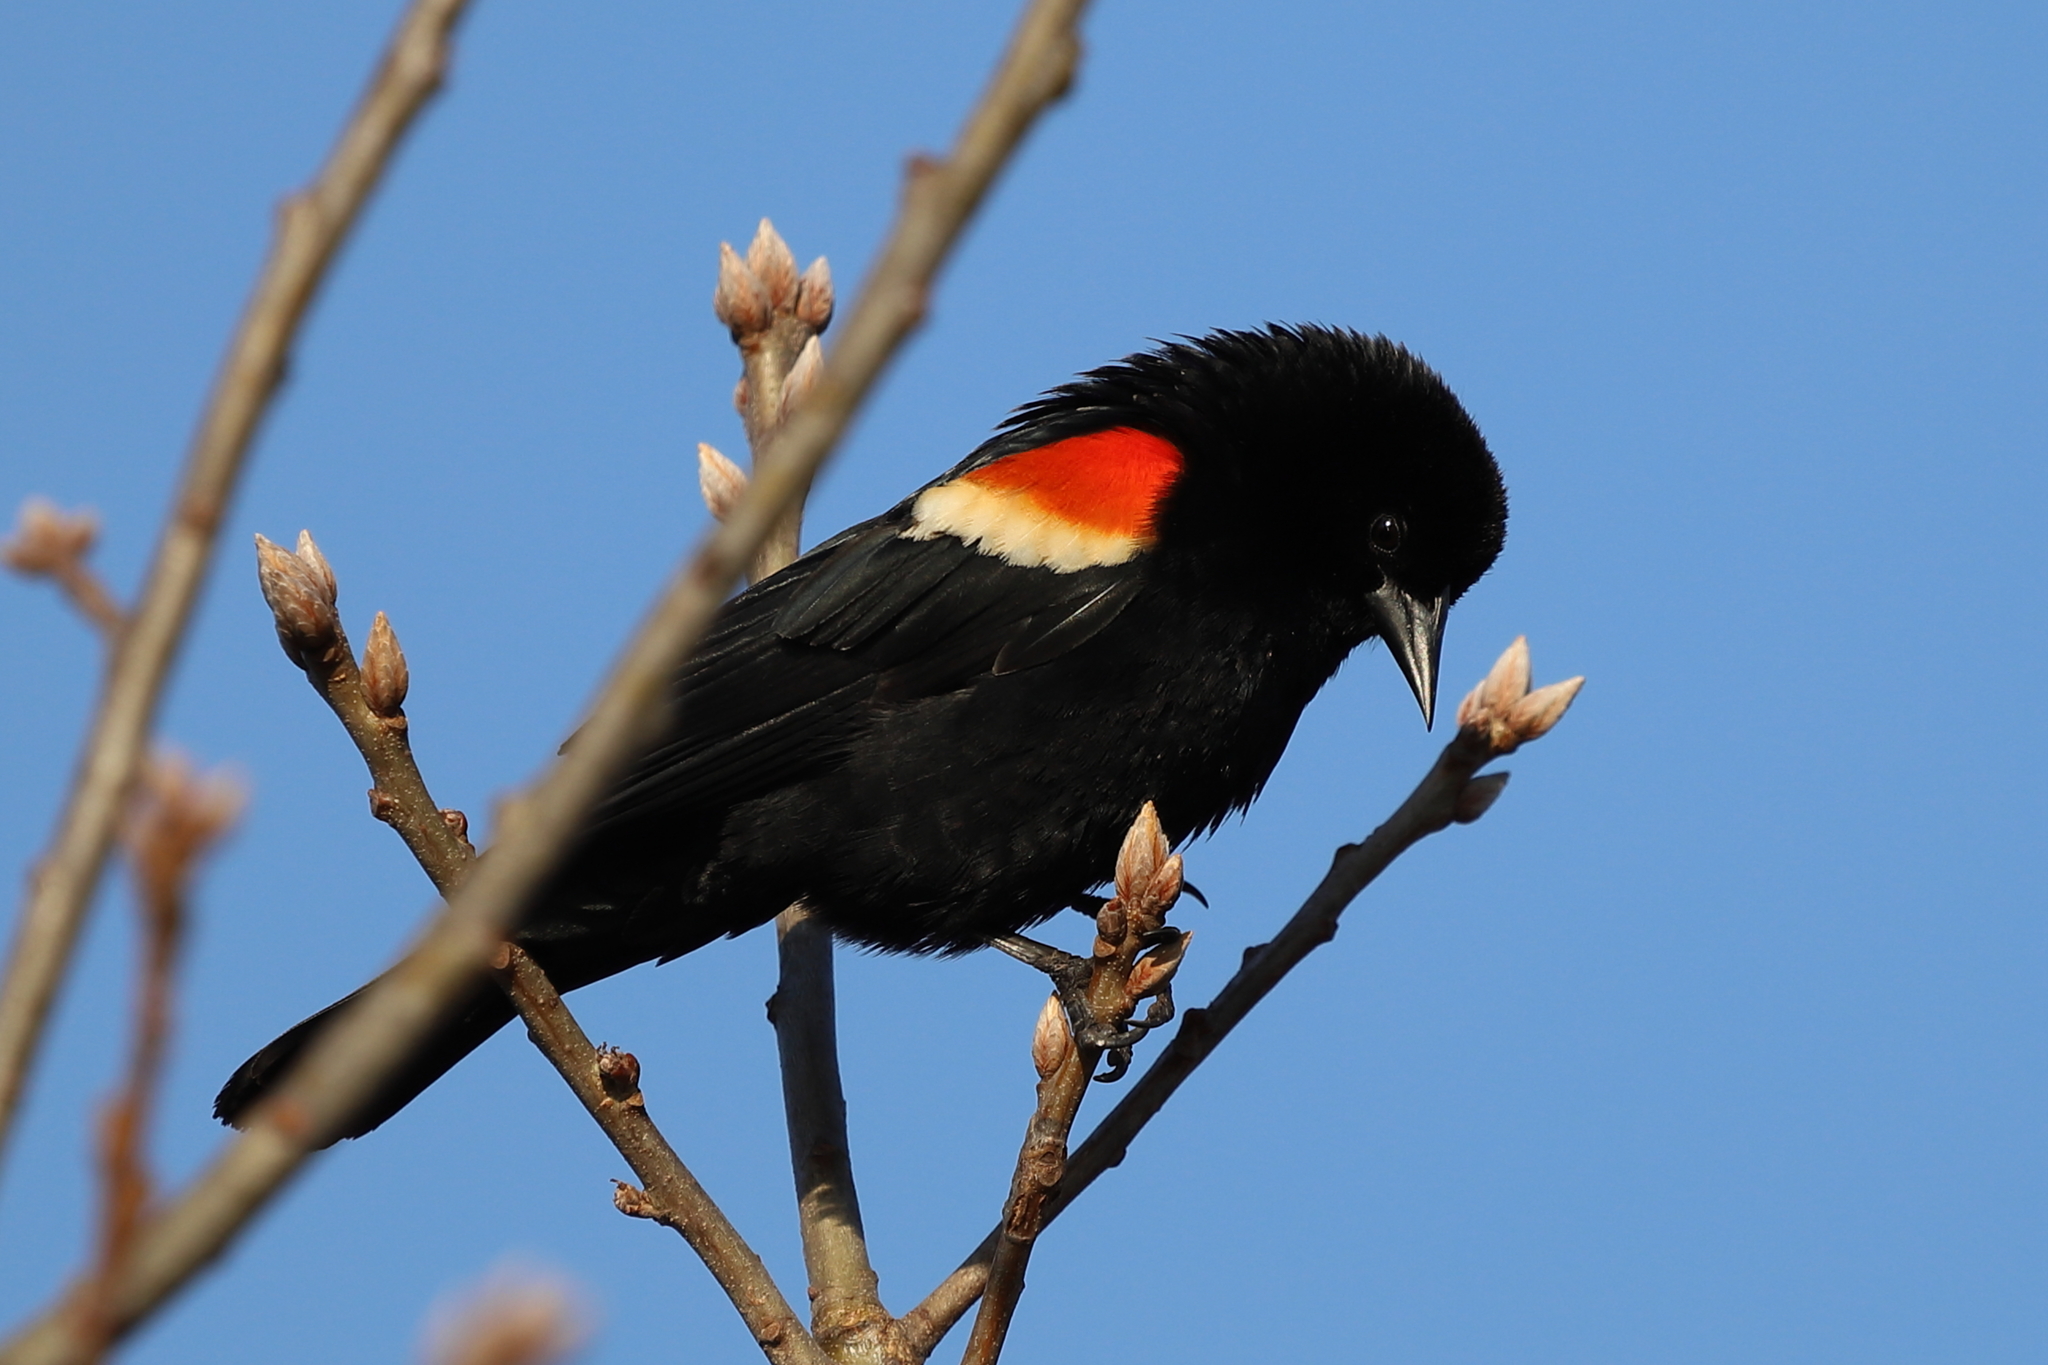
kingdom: Animalia
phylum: Chordata
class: Aves
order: Passeriformes
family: Icteridae
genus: Agelaius
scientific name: Agelaius phoeniceus
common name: Red-winged blackbird
